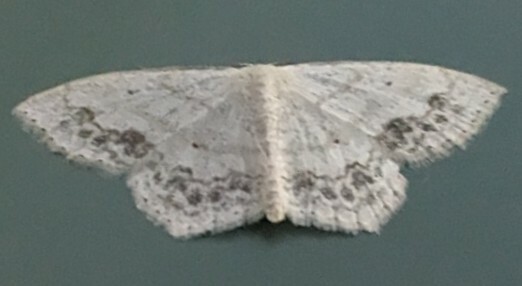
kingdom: Animalia
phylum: Arthropoda
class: Insecta
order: Lepidoptera
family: Geometridae
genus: Scopula
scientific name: Scopula limboundata
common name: Large lace border
